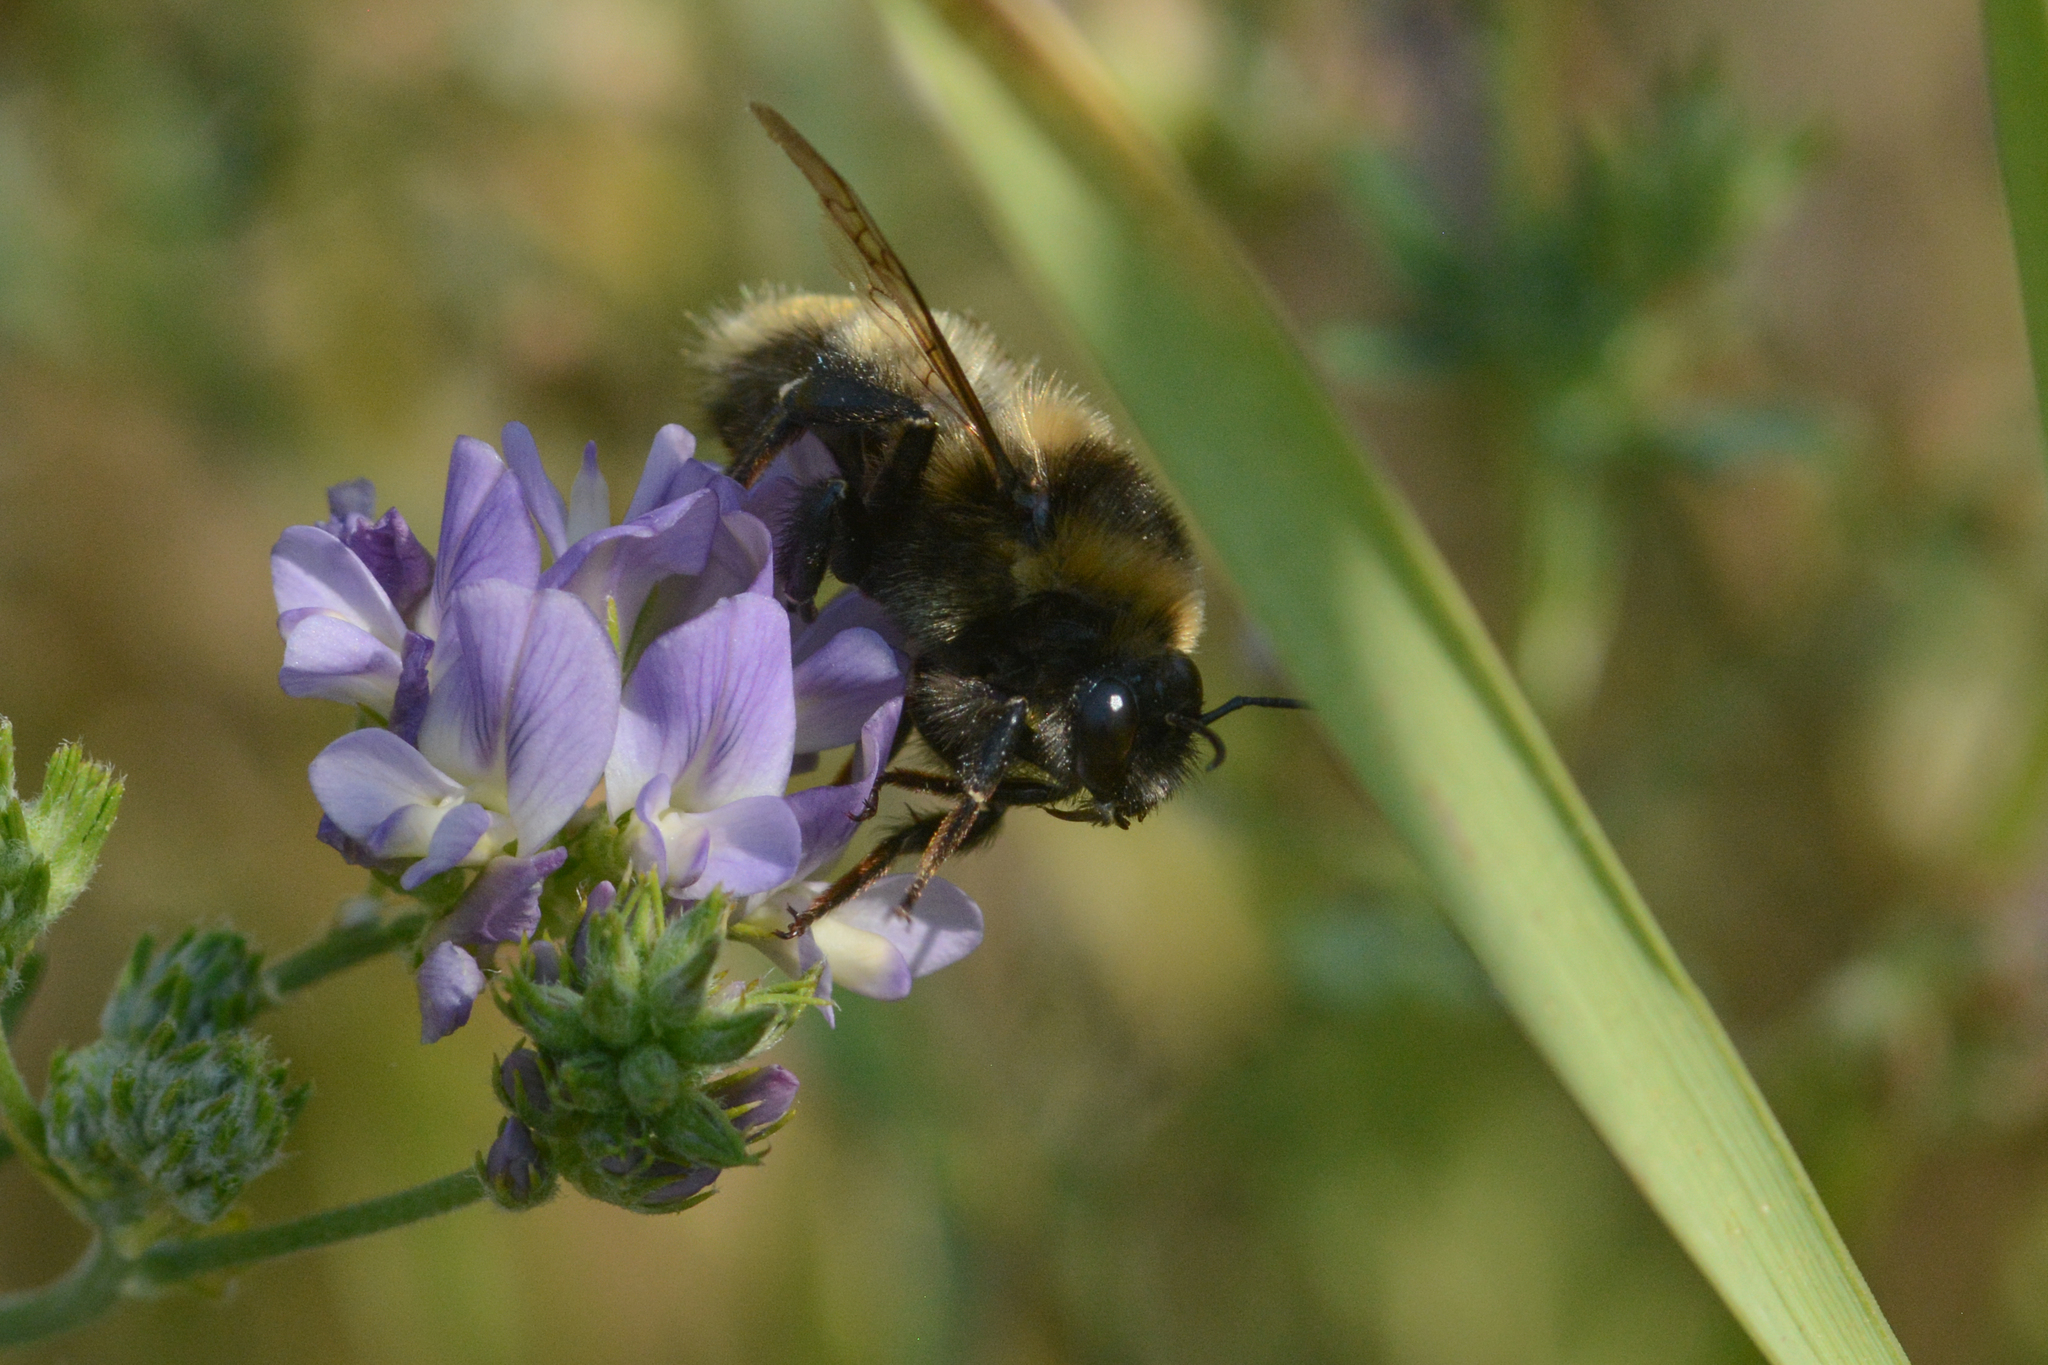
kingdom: Animalia
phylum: Arthropoda
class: Insecta
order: Hymenoptera
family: Apidae
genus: Bombus
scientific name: Bombus rufocinctus
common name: Red-belted bumble bee
